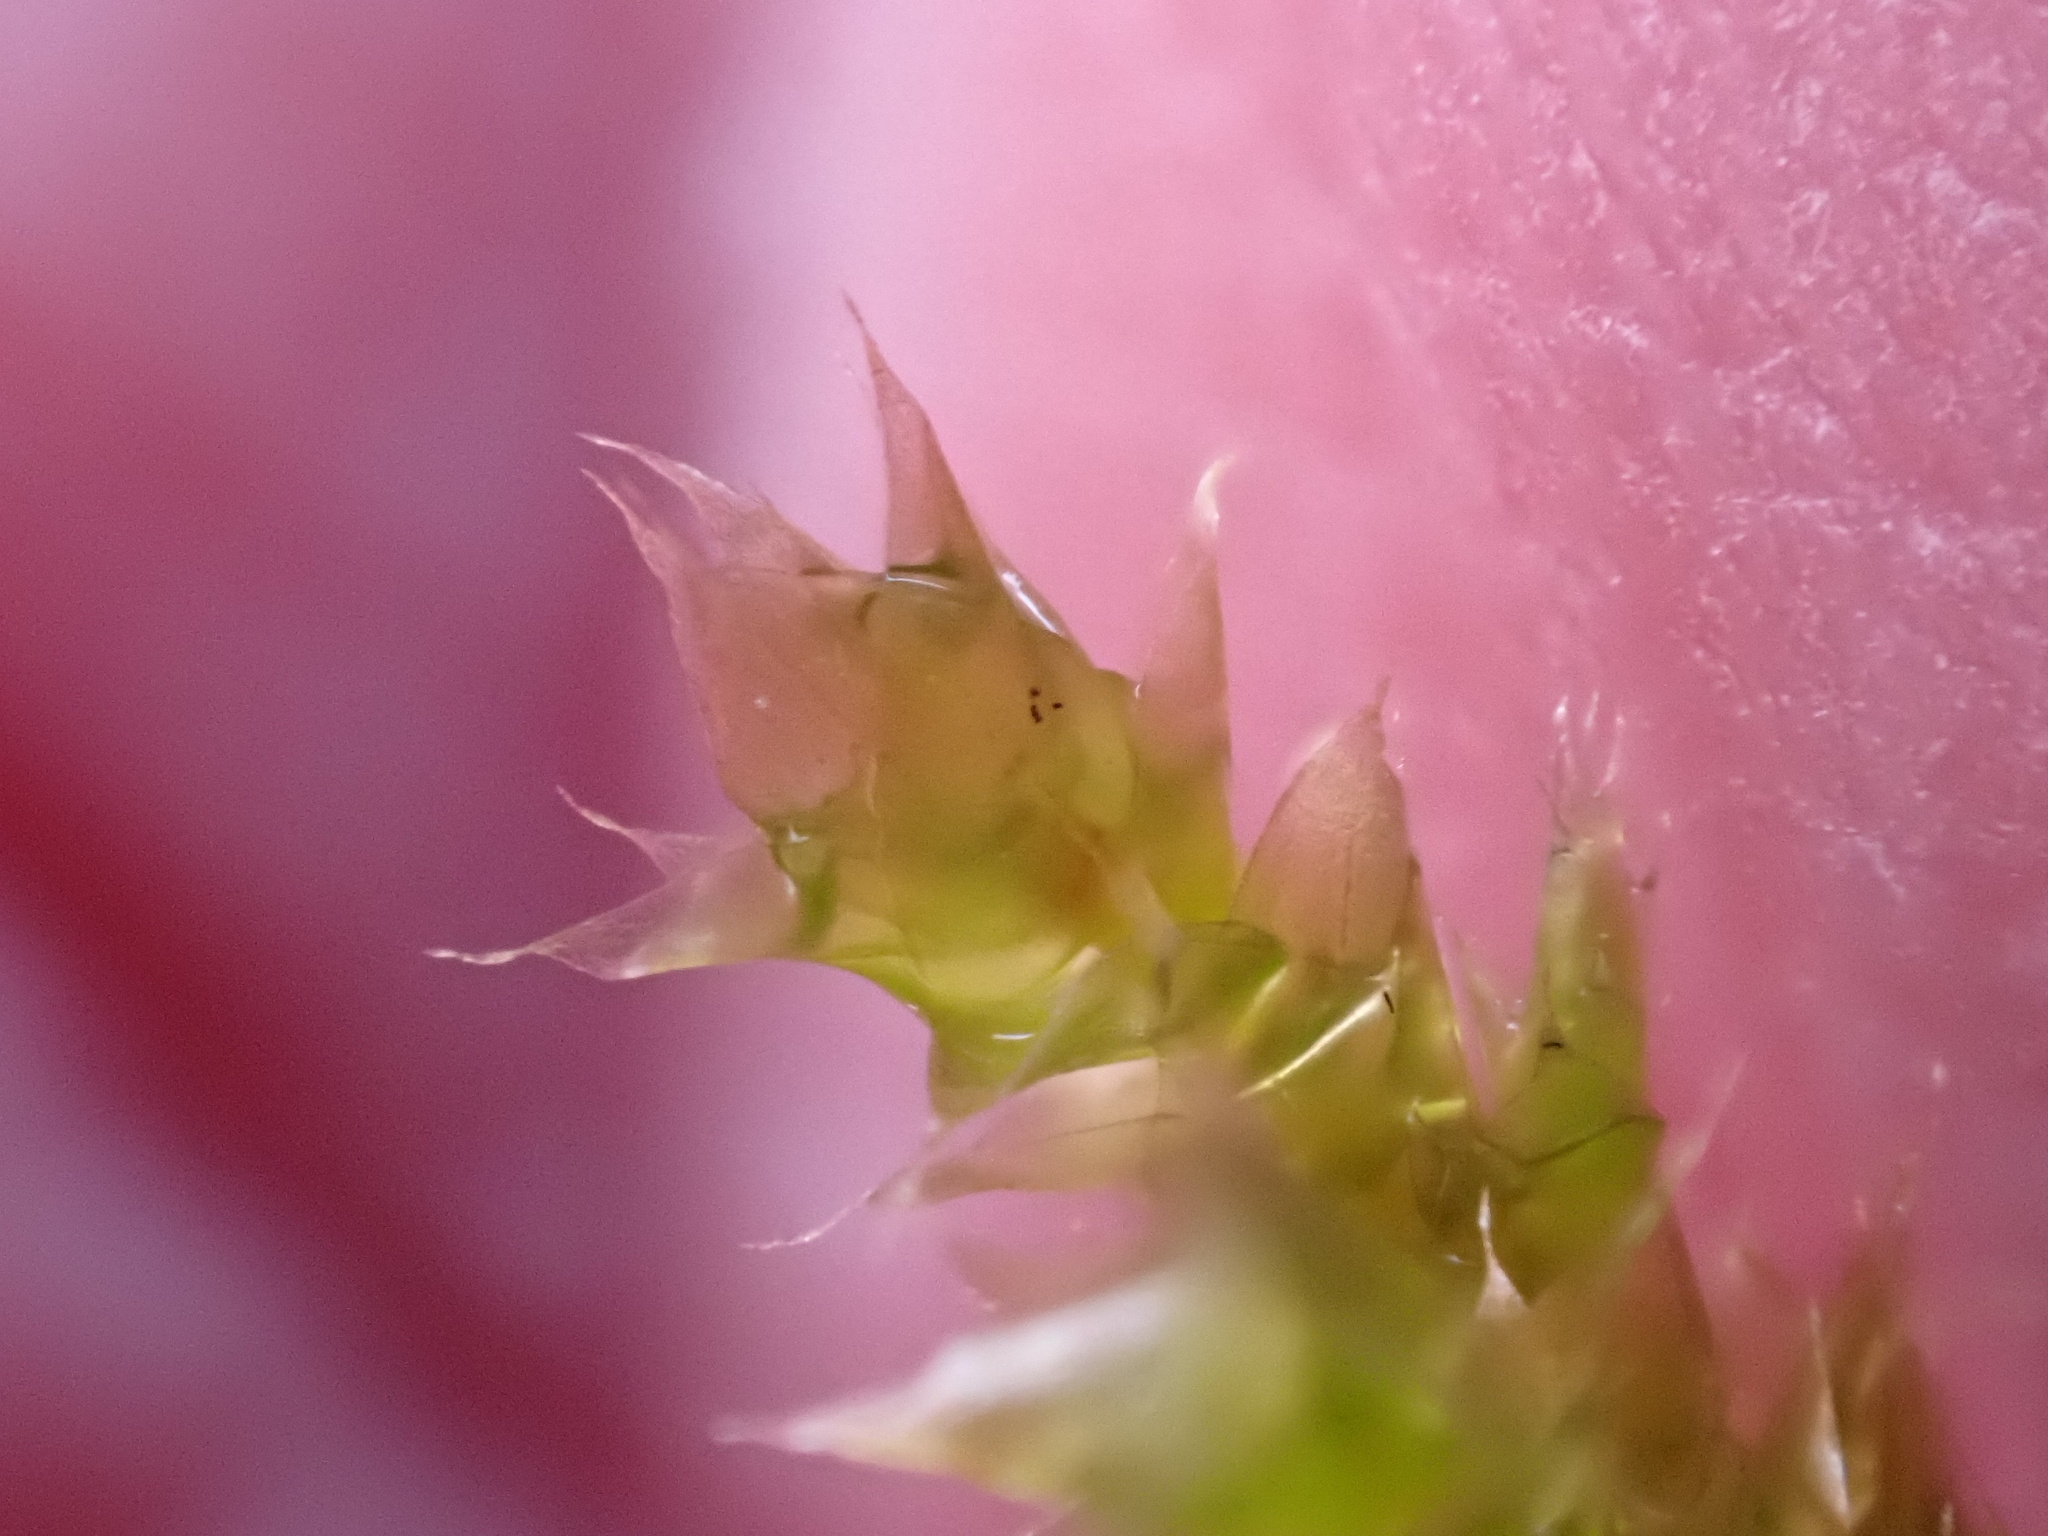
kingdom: Plantae
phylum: Bryophyta
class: Bryopsida
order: Hypnales
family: Brachytheciaceae
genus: Brachythecium
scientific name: Brachythecium rutabulum
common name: Rough-stalked feather-moss
